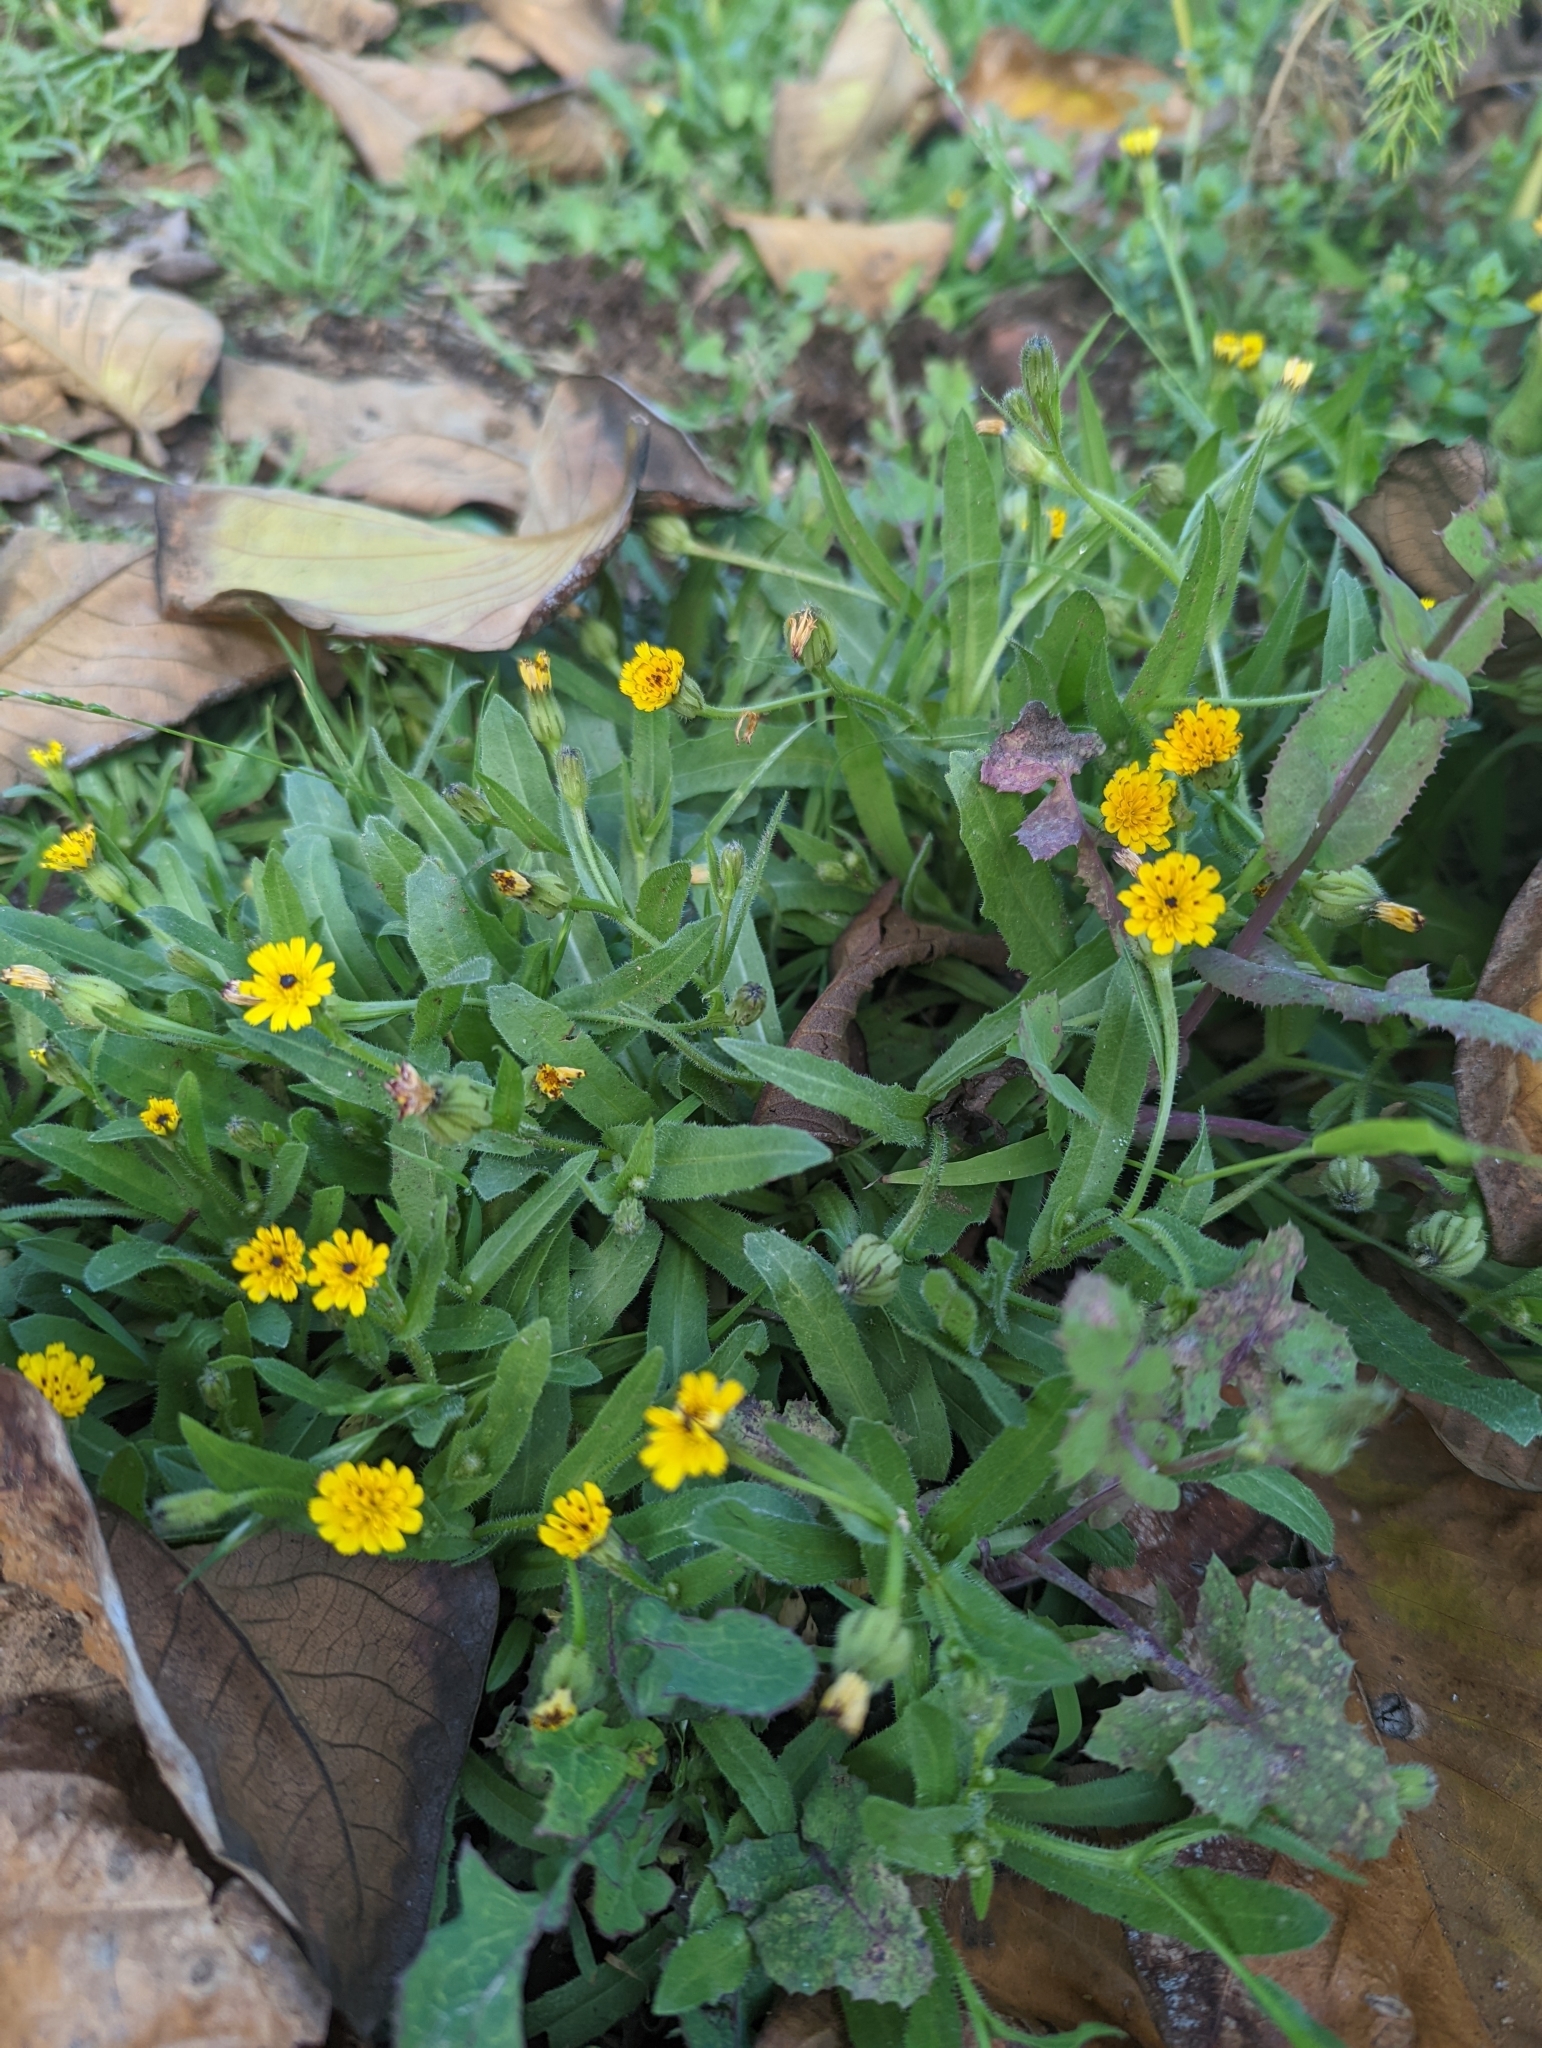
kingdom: Plantae
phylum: Tracheophyta
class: Magnoliopsida
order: Asterales
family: Asteraceae
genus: Hedypnois
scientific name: Hedypnois rhagadioloides
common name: Cretan weed
